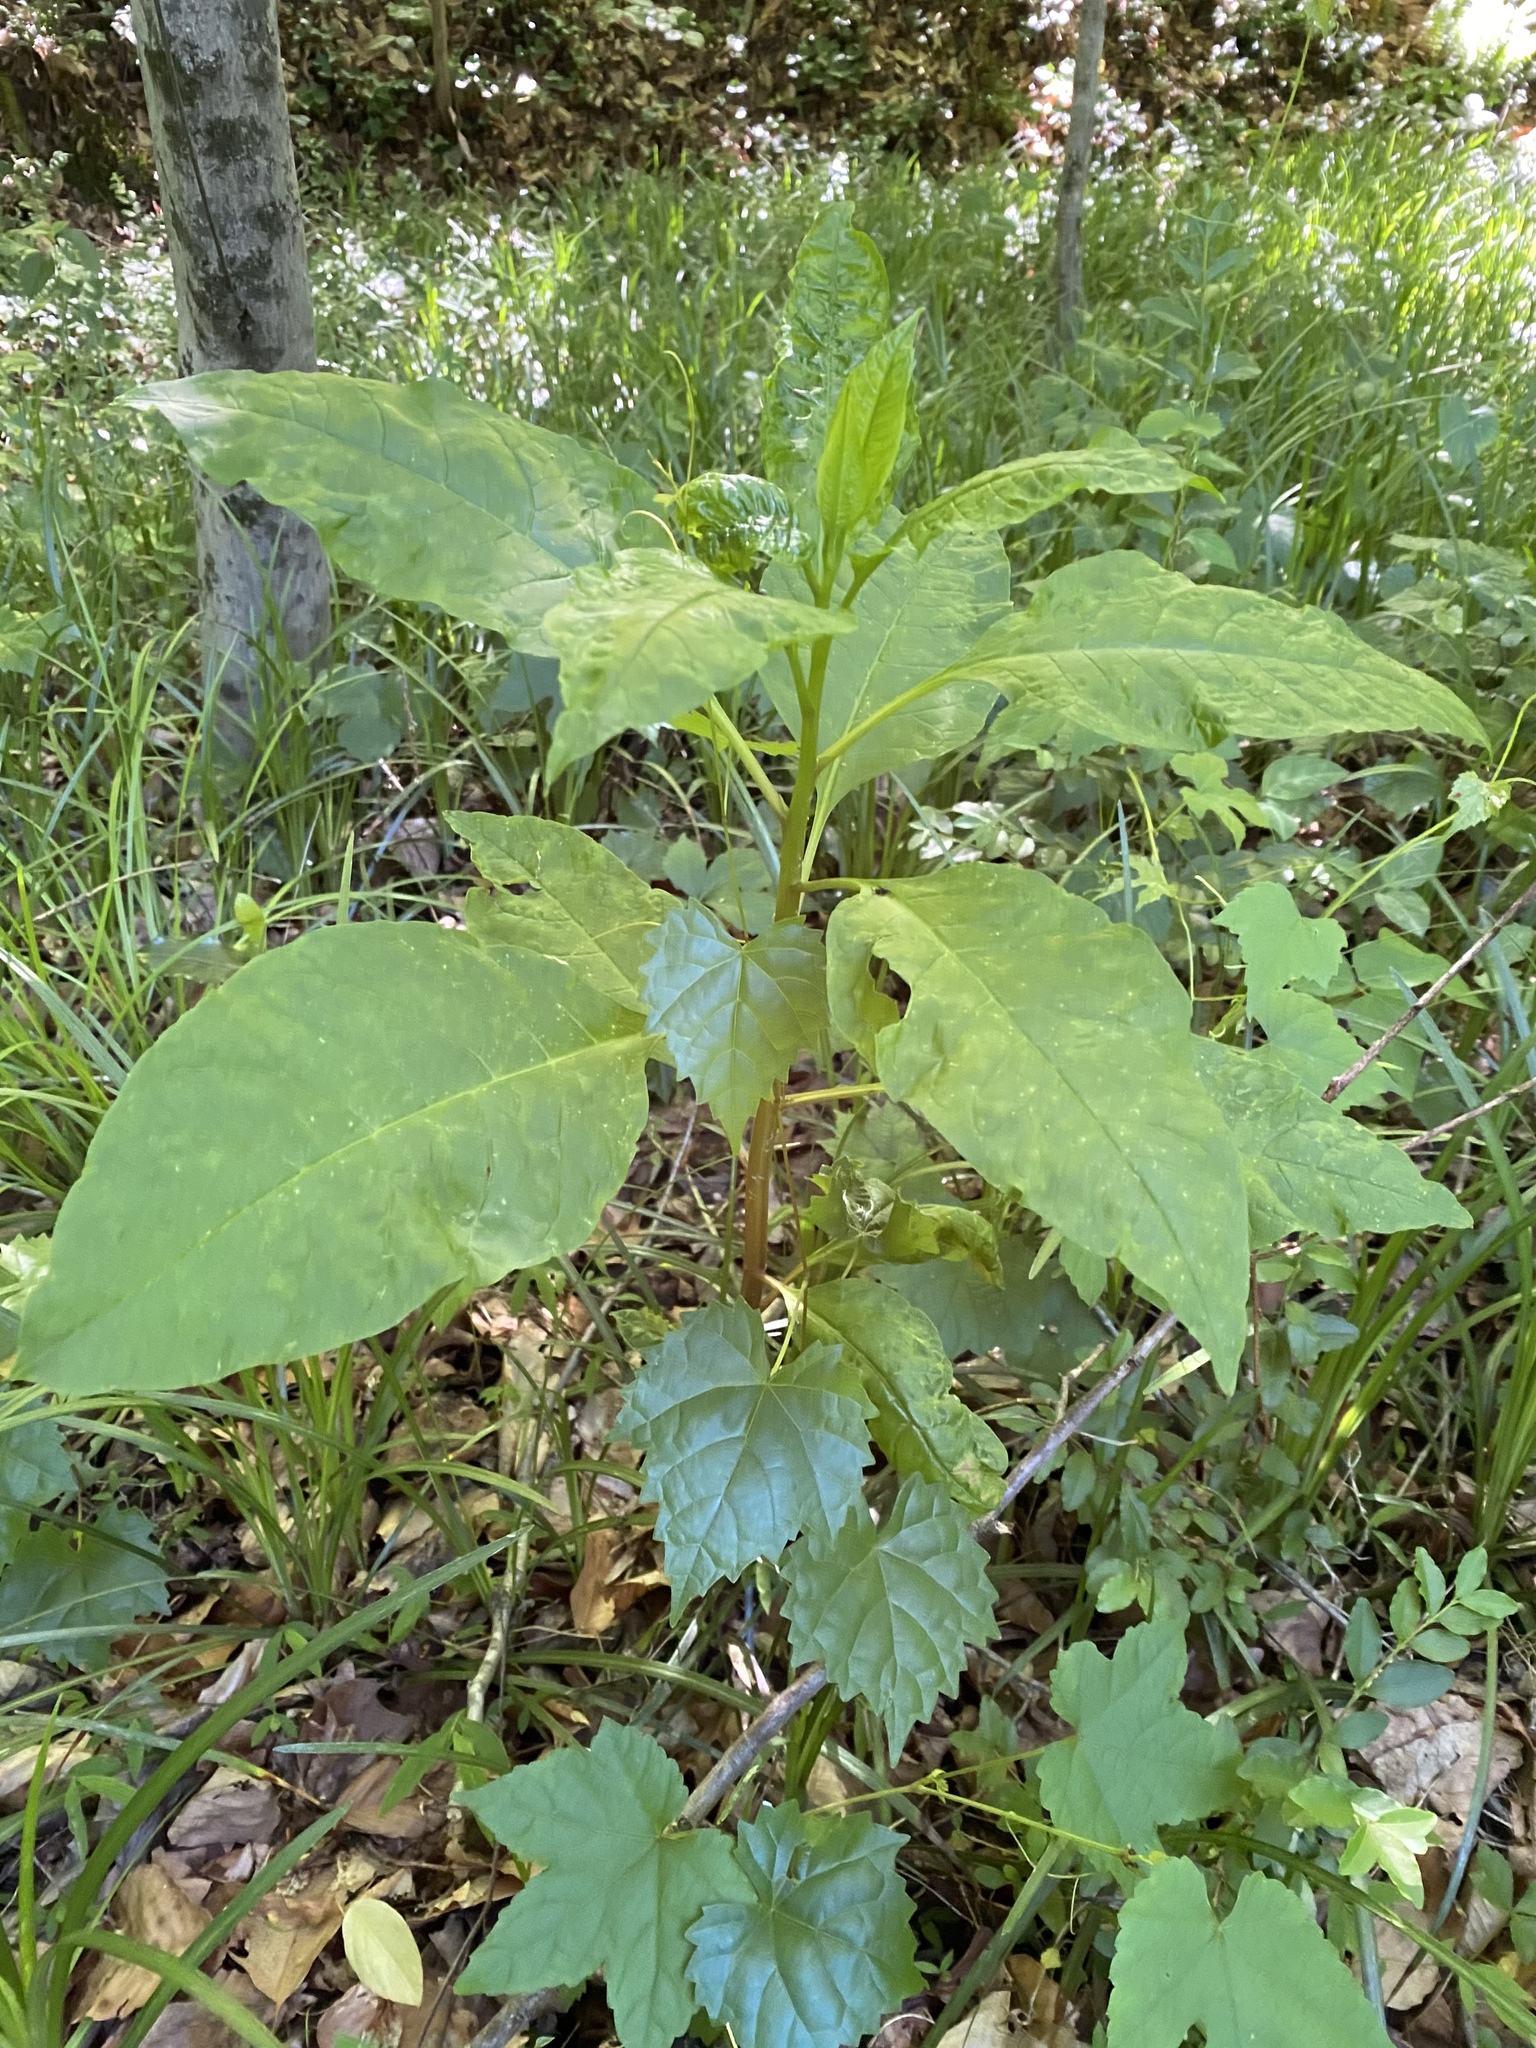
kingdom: Plantae
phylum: Tracheophyta
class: Magnoliopsida
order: Caryophyllales
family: Phytolaccaceae
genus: Phytolacca
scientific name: Phytolacca americana
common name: American pokeweed
